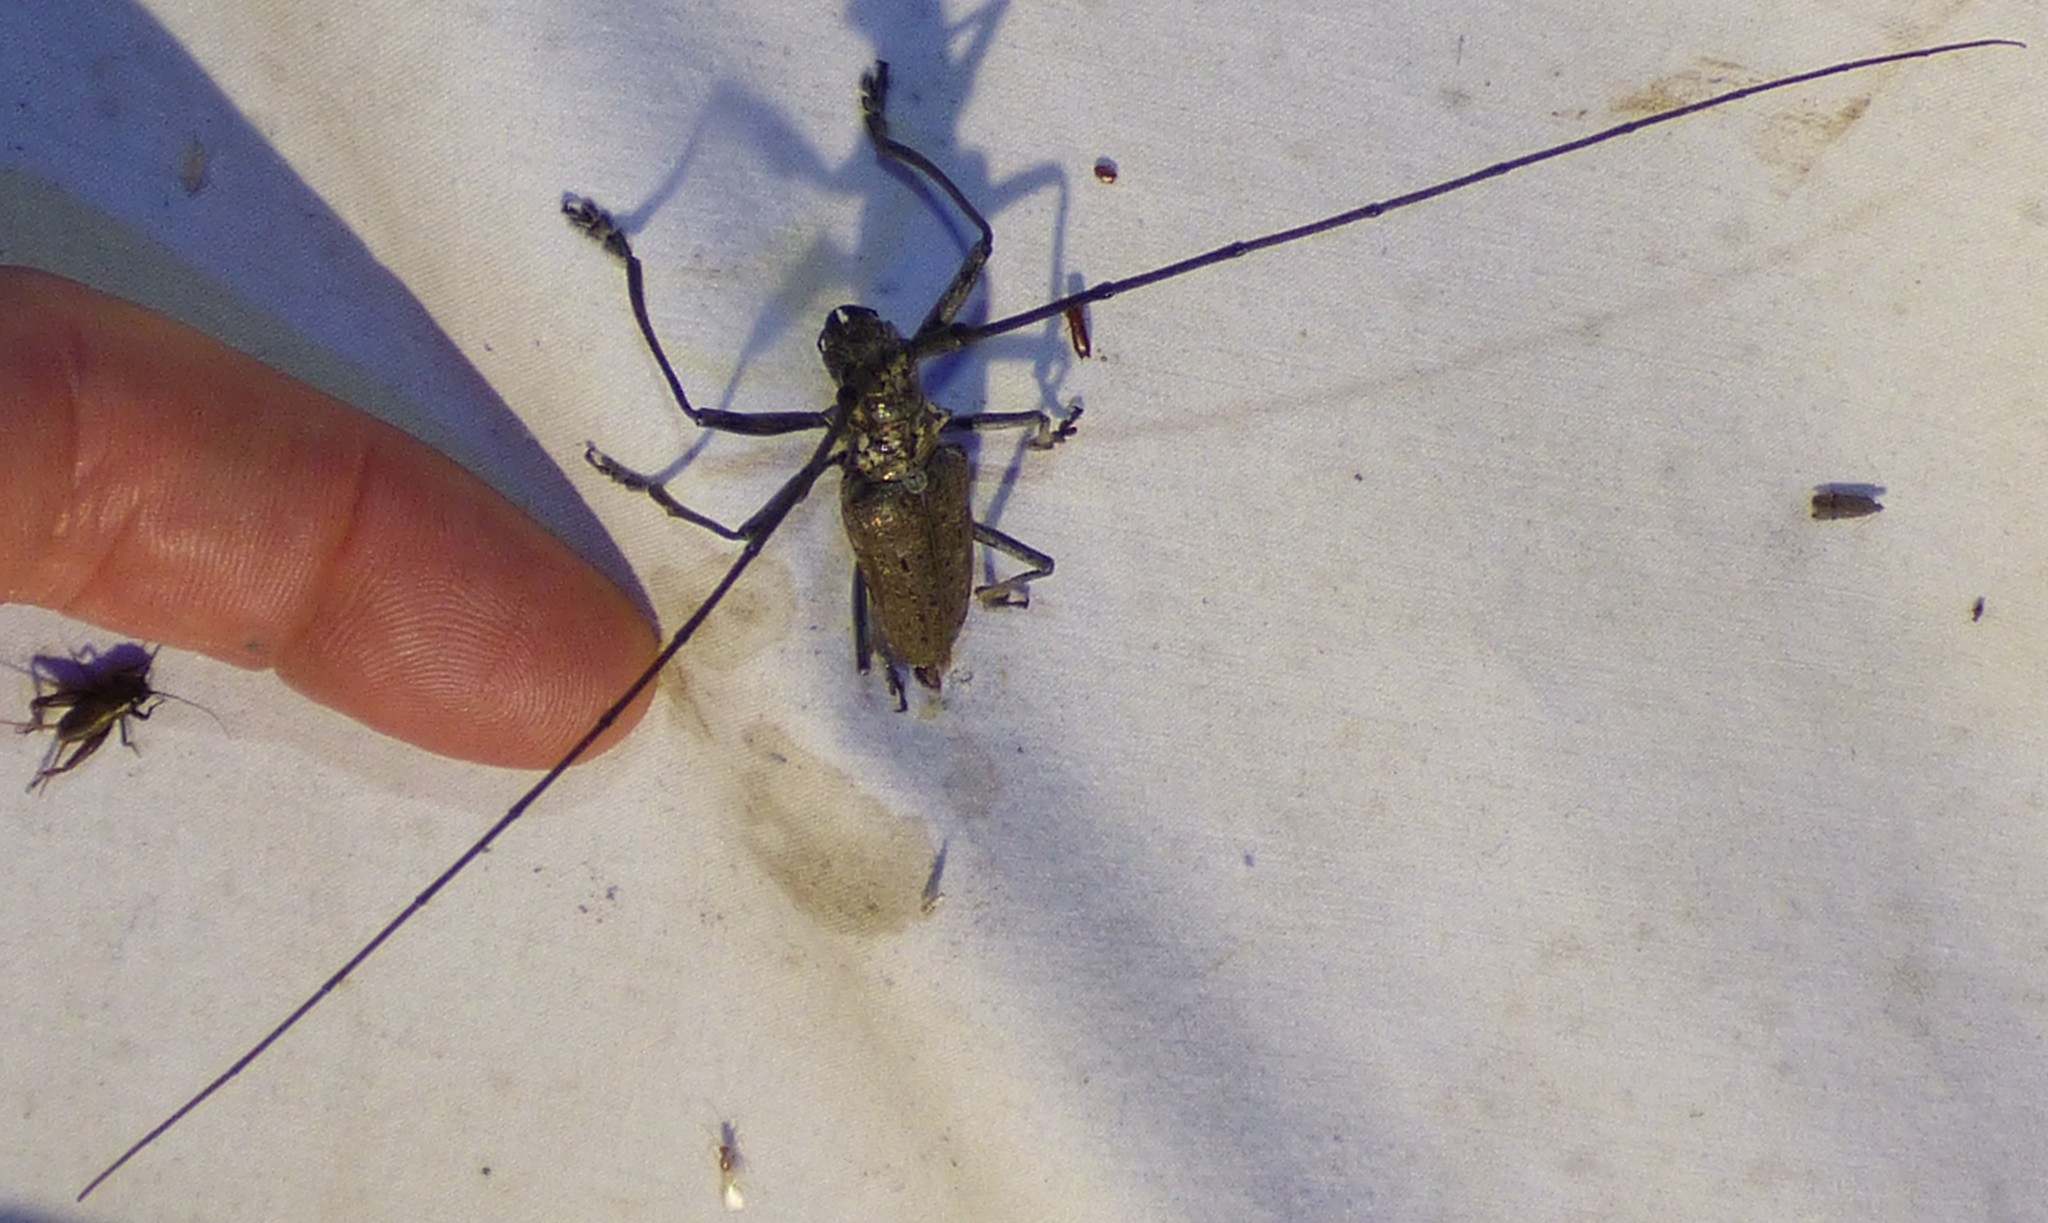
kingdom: Animalia
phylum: Arthropoda
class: Insecta
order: Coleoptera
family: Cerambycidae
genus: Monochamus
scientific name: Monochamus notatus
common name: Northeastern pine sawyer beetle
